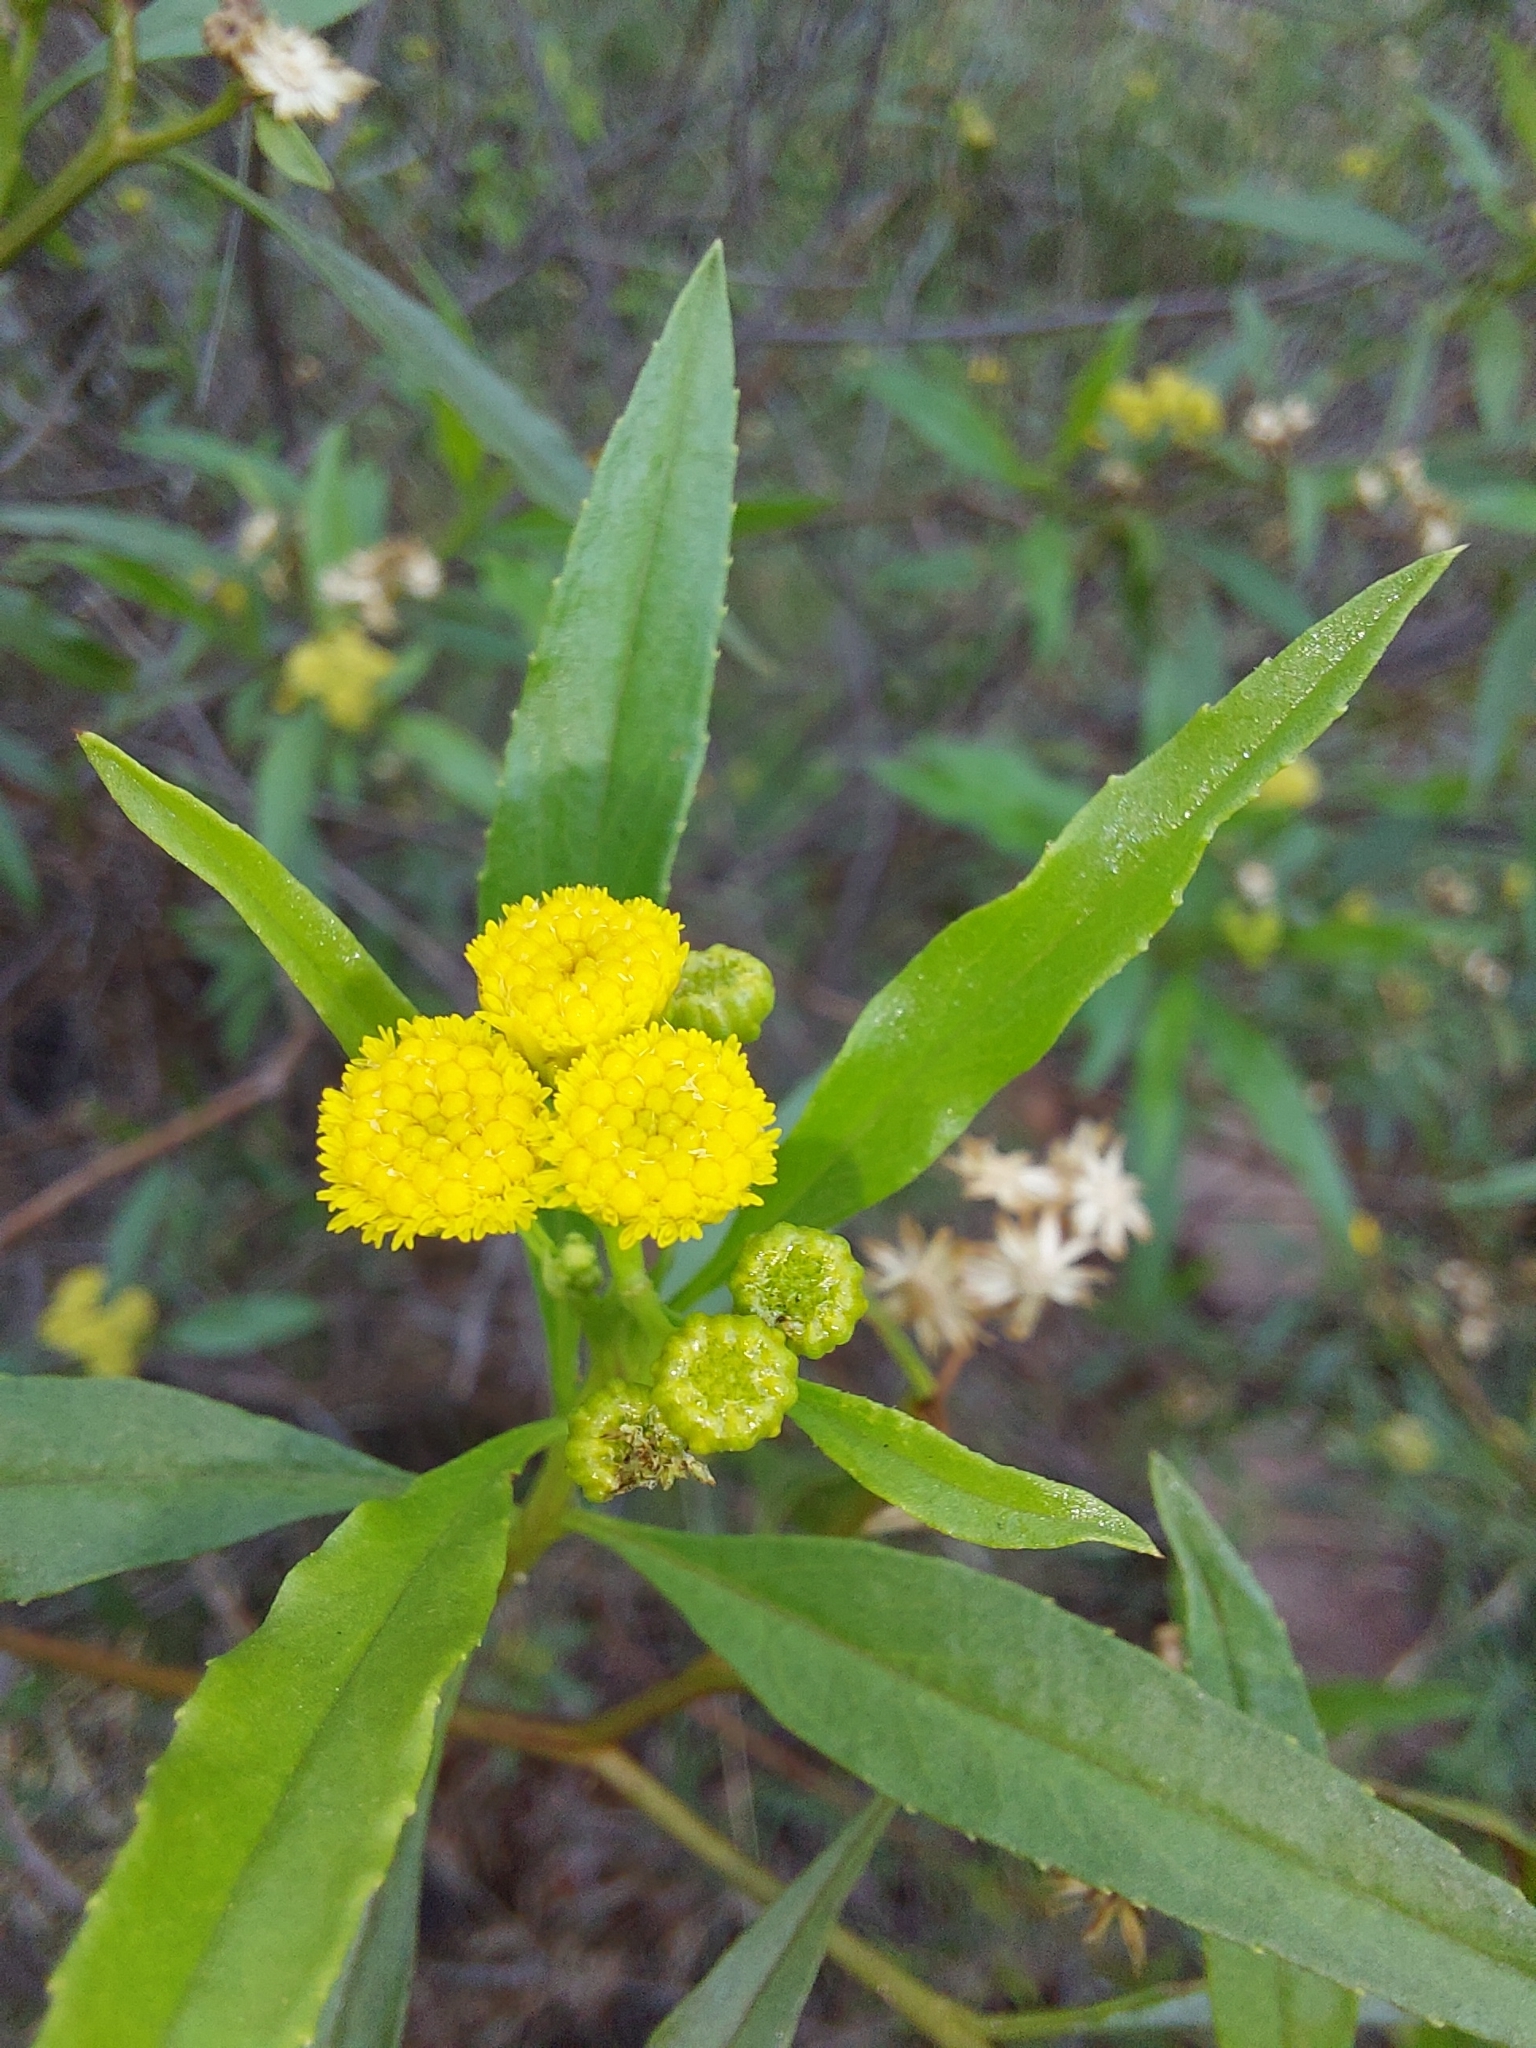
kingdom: Plantae
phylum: Tracheophyta
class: Magnoliopsida
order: Asterales
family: Asteraceae
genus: Psiadia
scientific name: Psiadia punctulata
